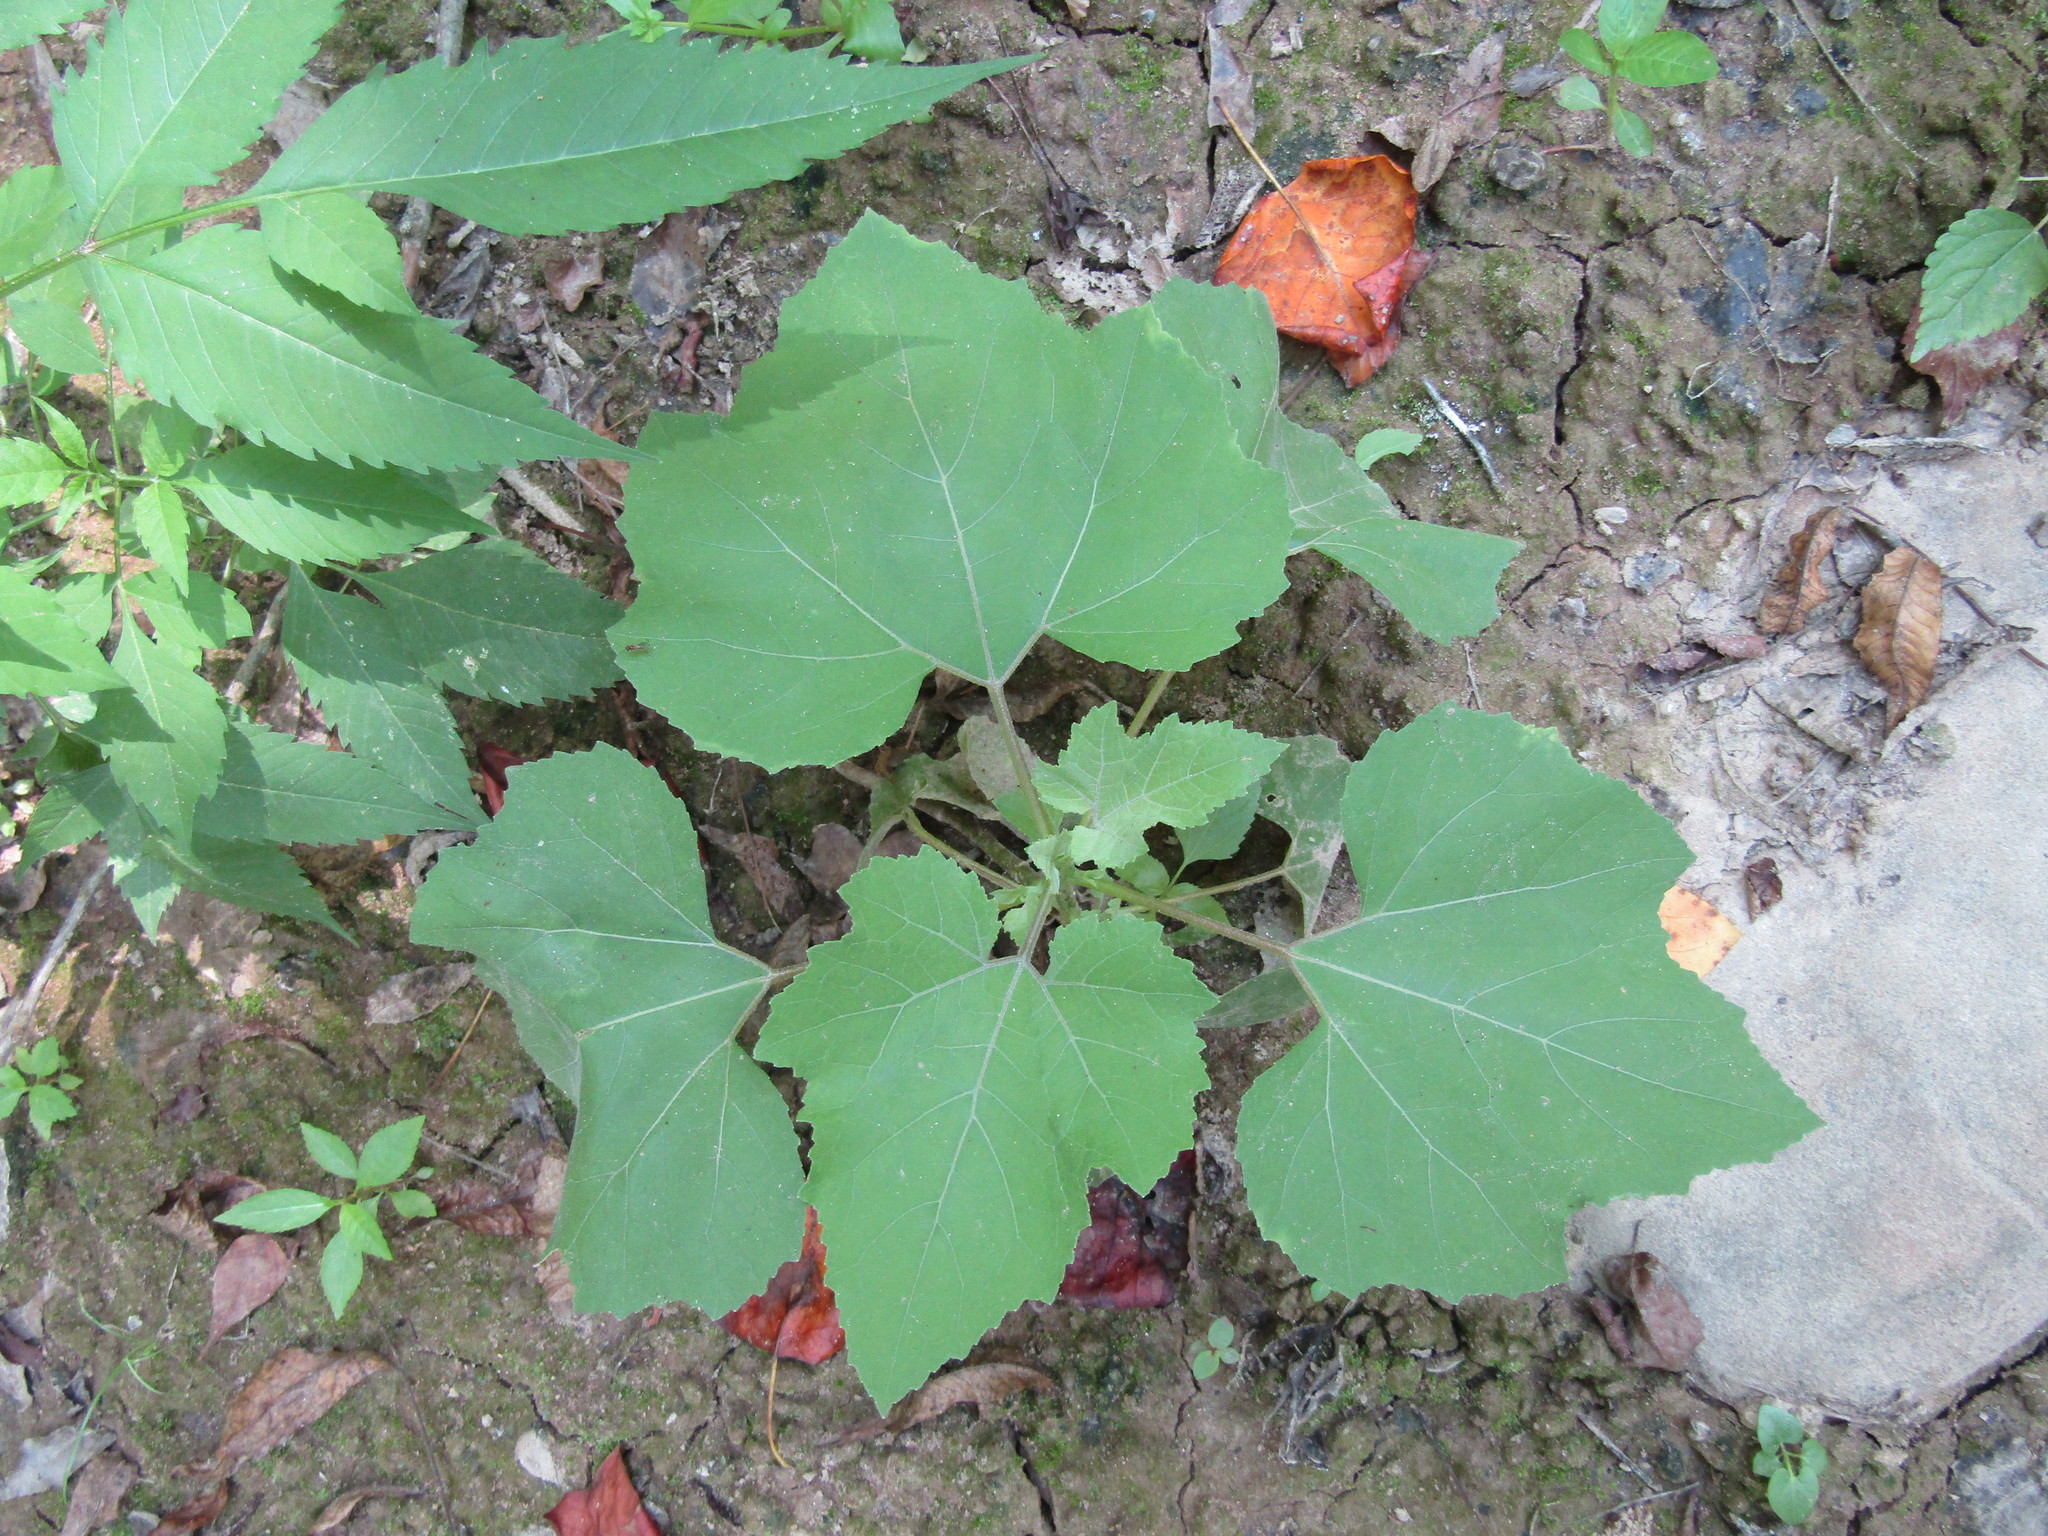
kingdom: Plantae
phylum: Tracheophyta
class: Magnoliopsida
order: Asterales
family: Asteraceae
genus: Xanthium
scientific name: Xanthium strumarium
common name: Rough cocklebur
